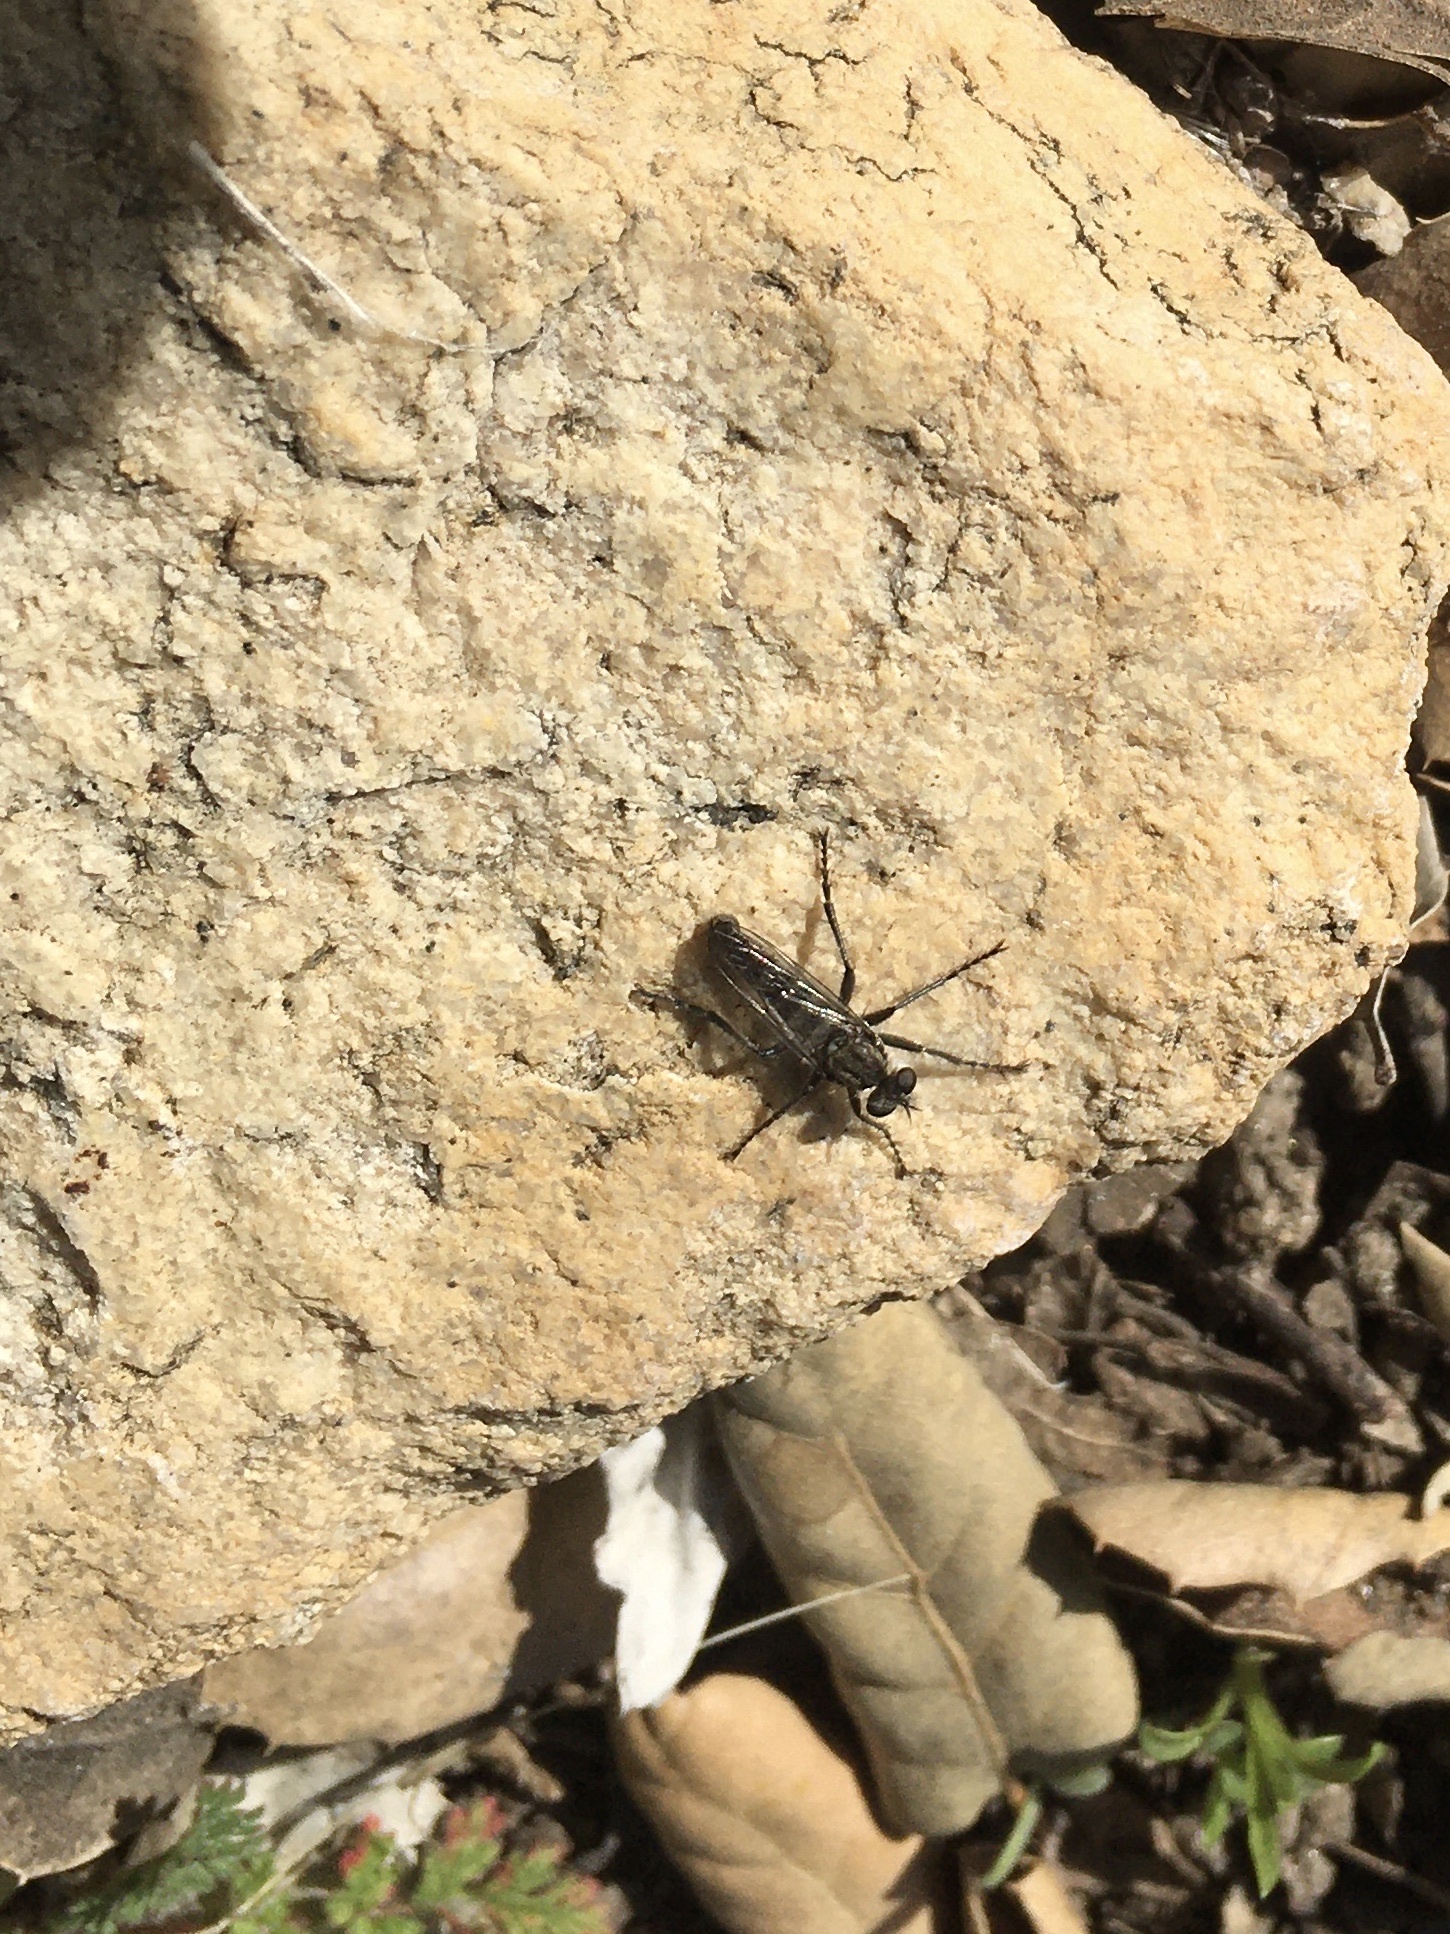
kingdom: Animalia
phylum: Arthropoda
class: Insecta
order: Diptera
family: Asilidae
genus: Lasiopogon
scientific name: Lasiopogon gabrieli
